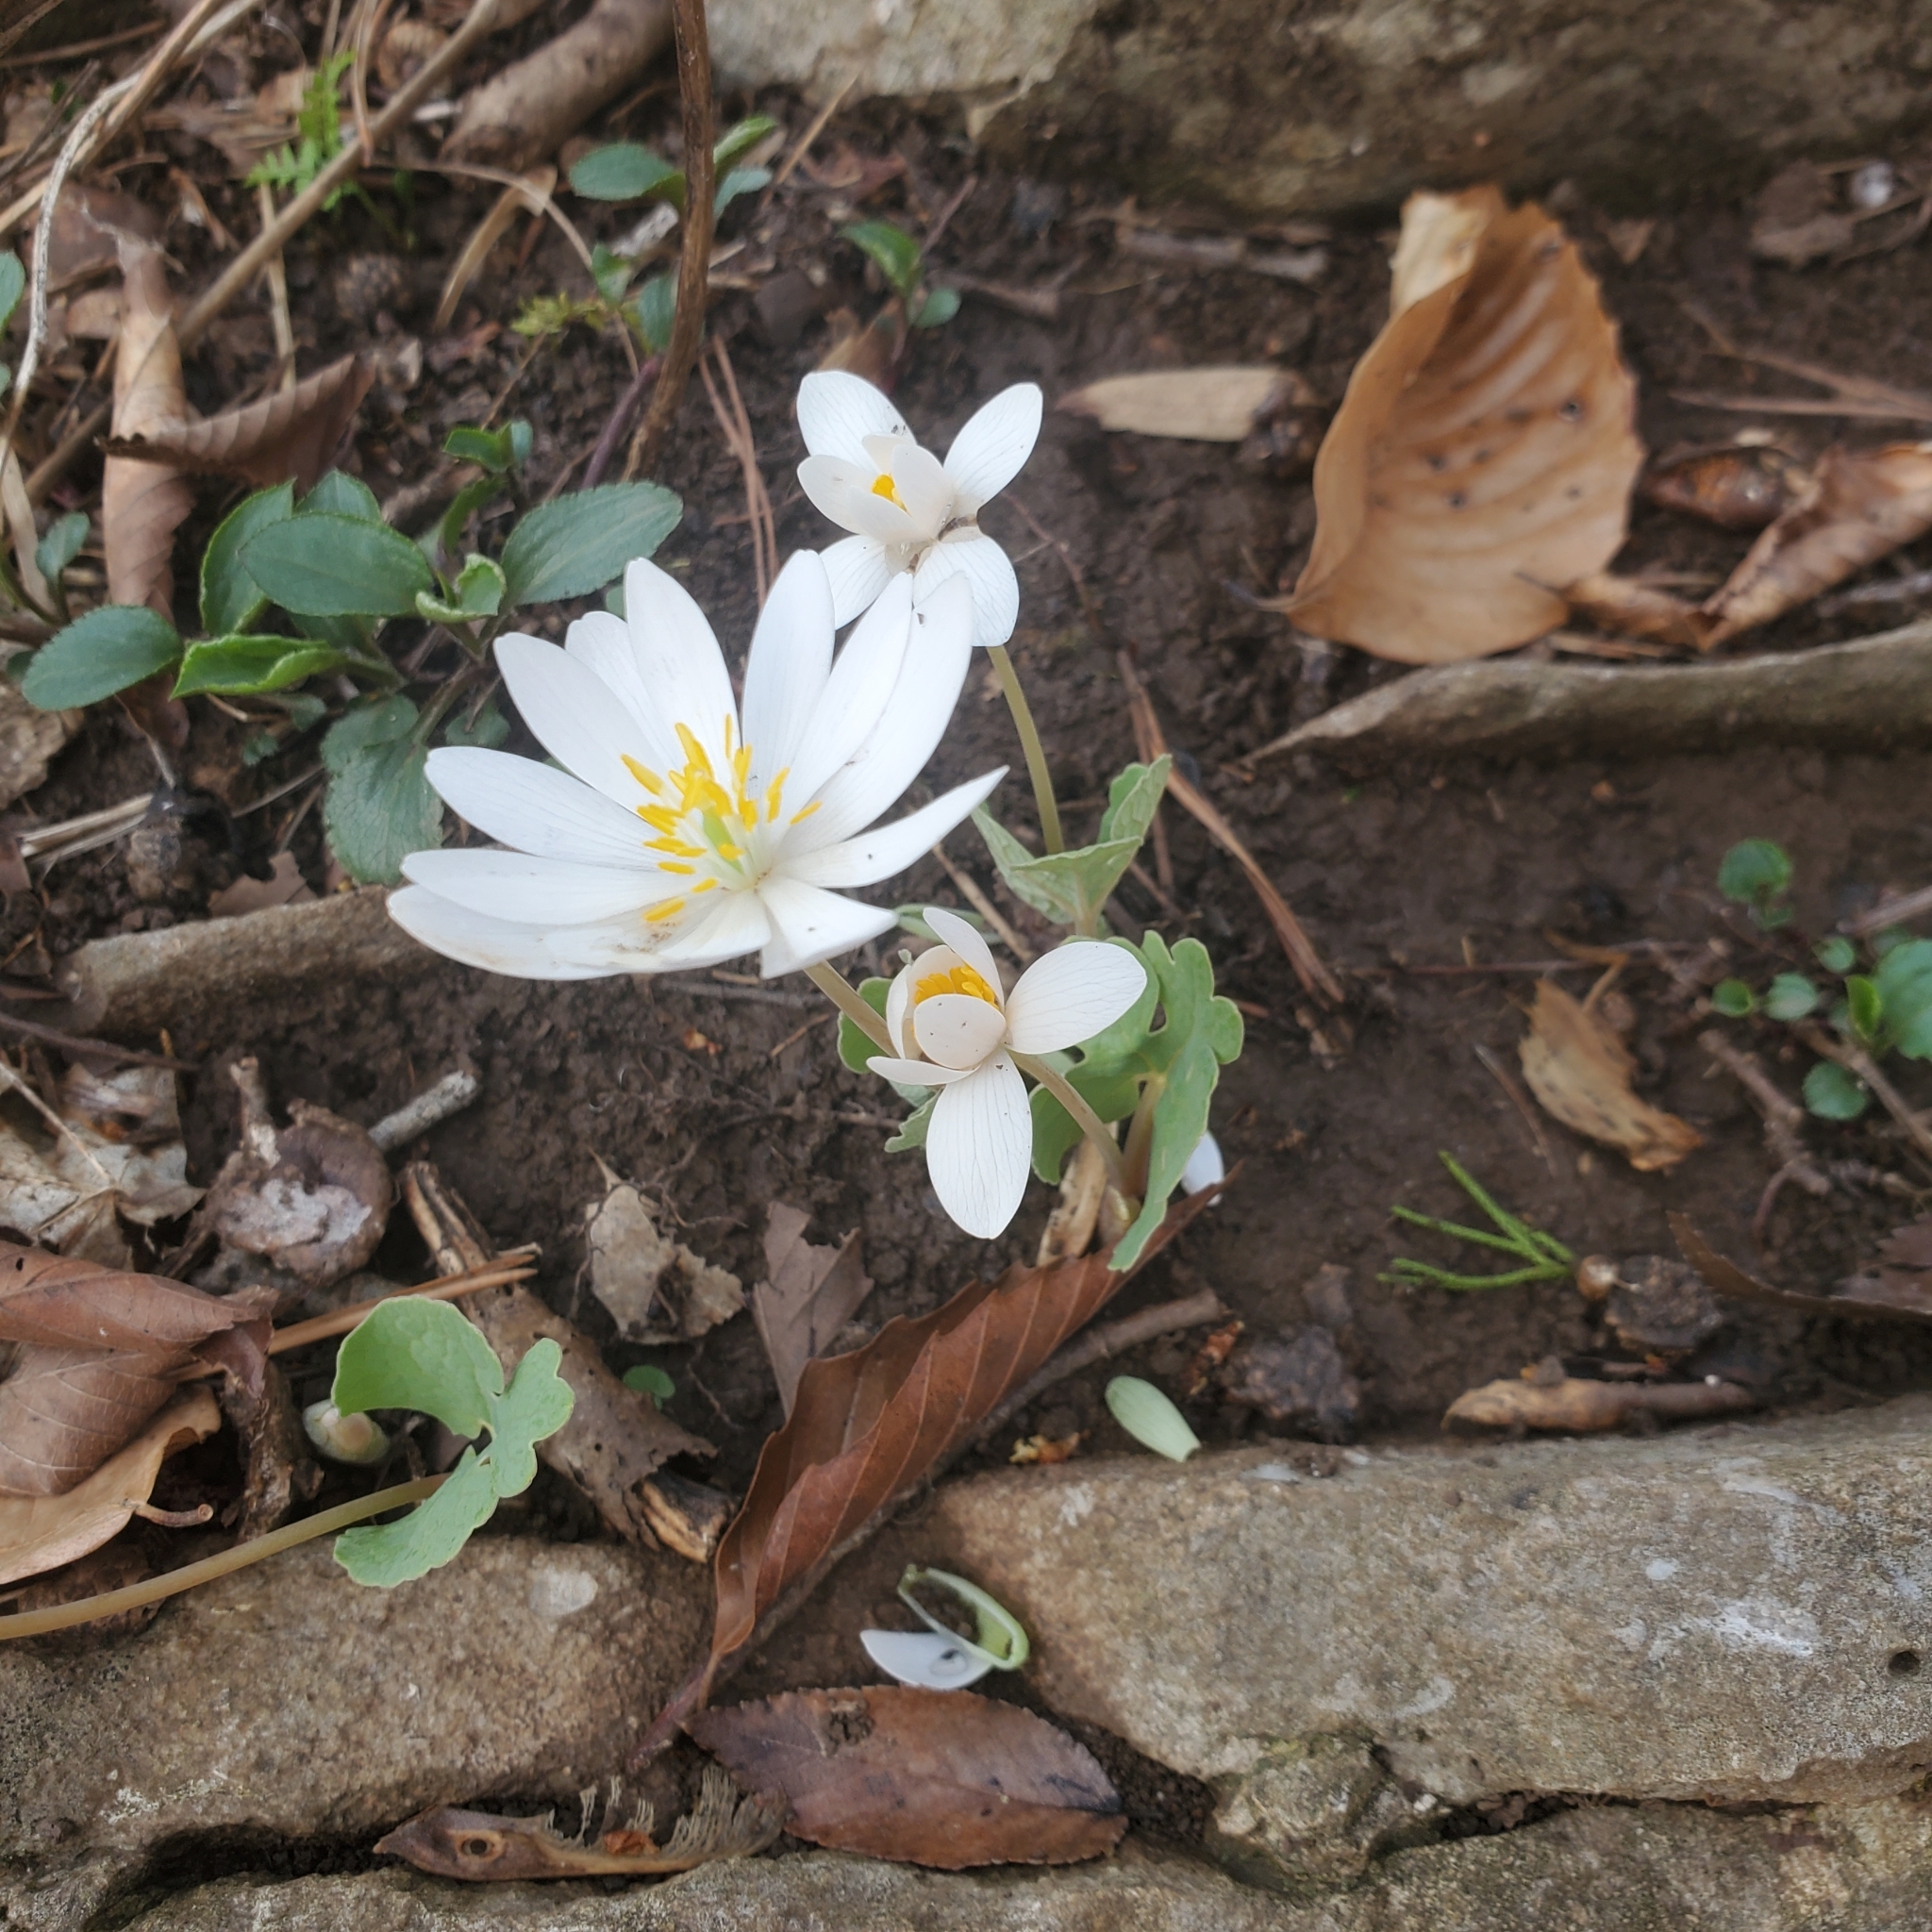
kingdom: Plantae
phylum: Tracheophyta
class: Magnoliopsida
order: Ranunculales
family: Papaveraceae
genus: Sanguinaria
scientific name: Sanguinaria canadensis
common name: Bloodroot
